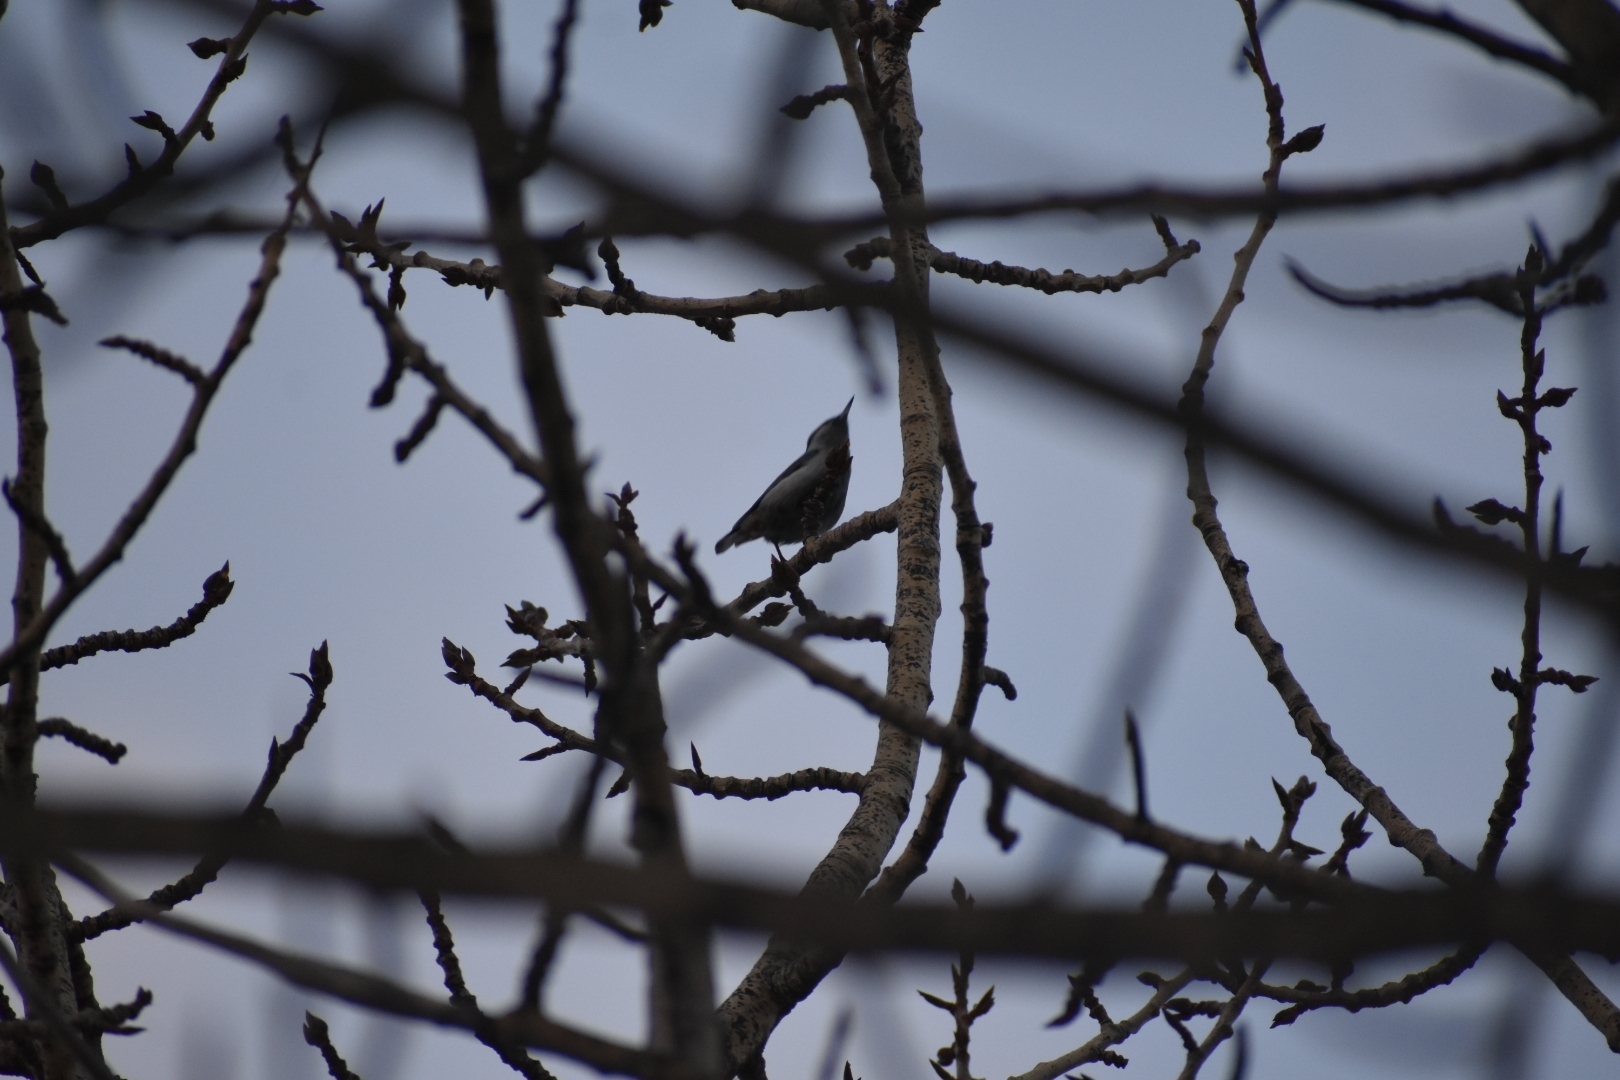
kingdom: Animalia
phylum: Chordata
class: Aves
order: Passeriformes
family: Sittidae
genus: Sitta
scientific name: Sitta europaea
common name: Eurasian nuthatch
